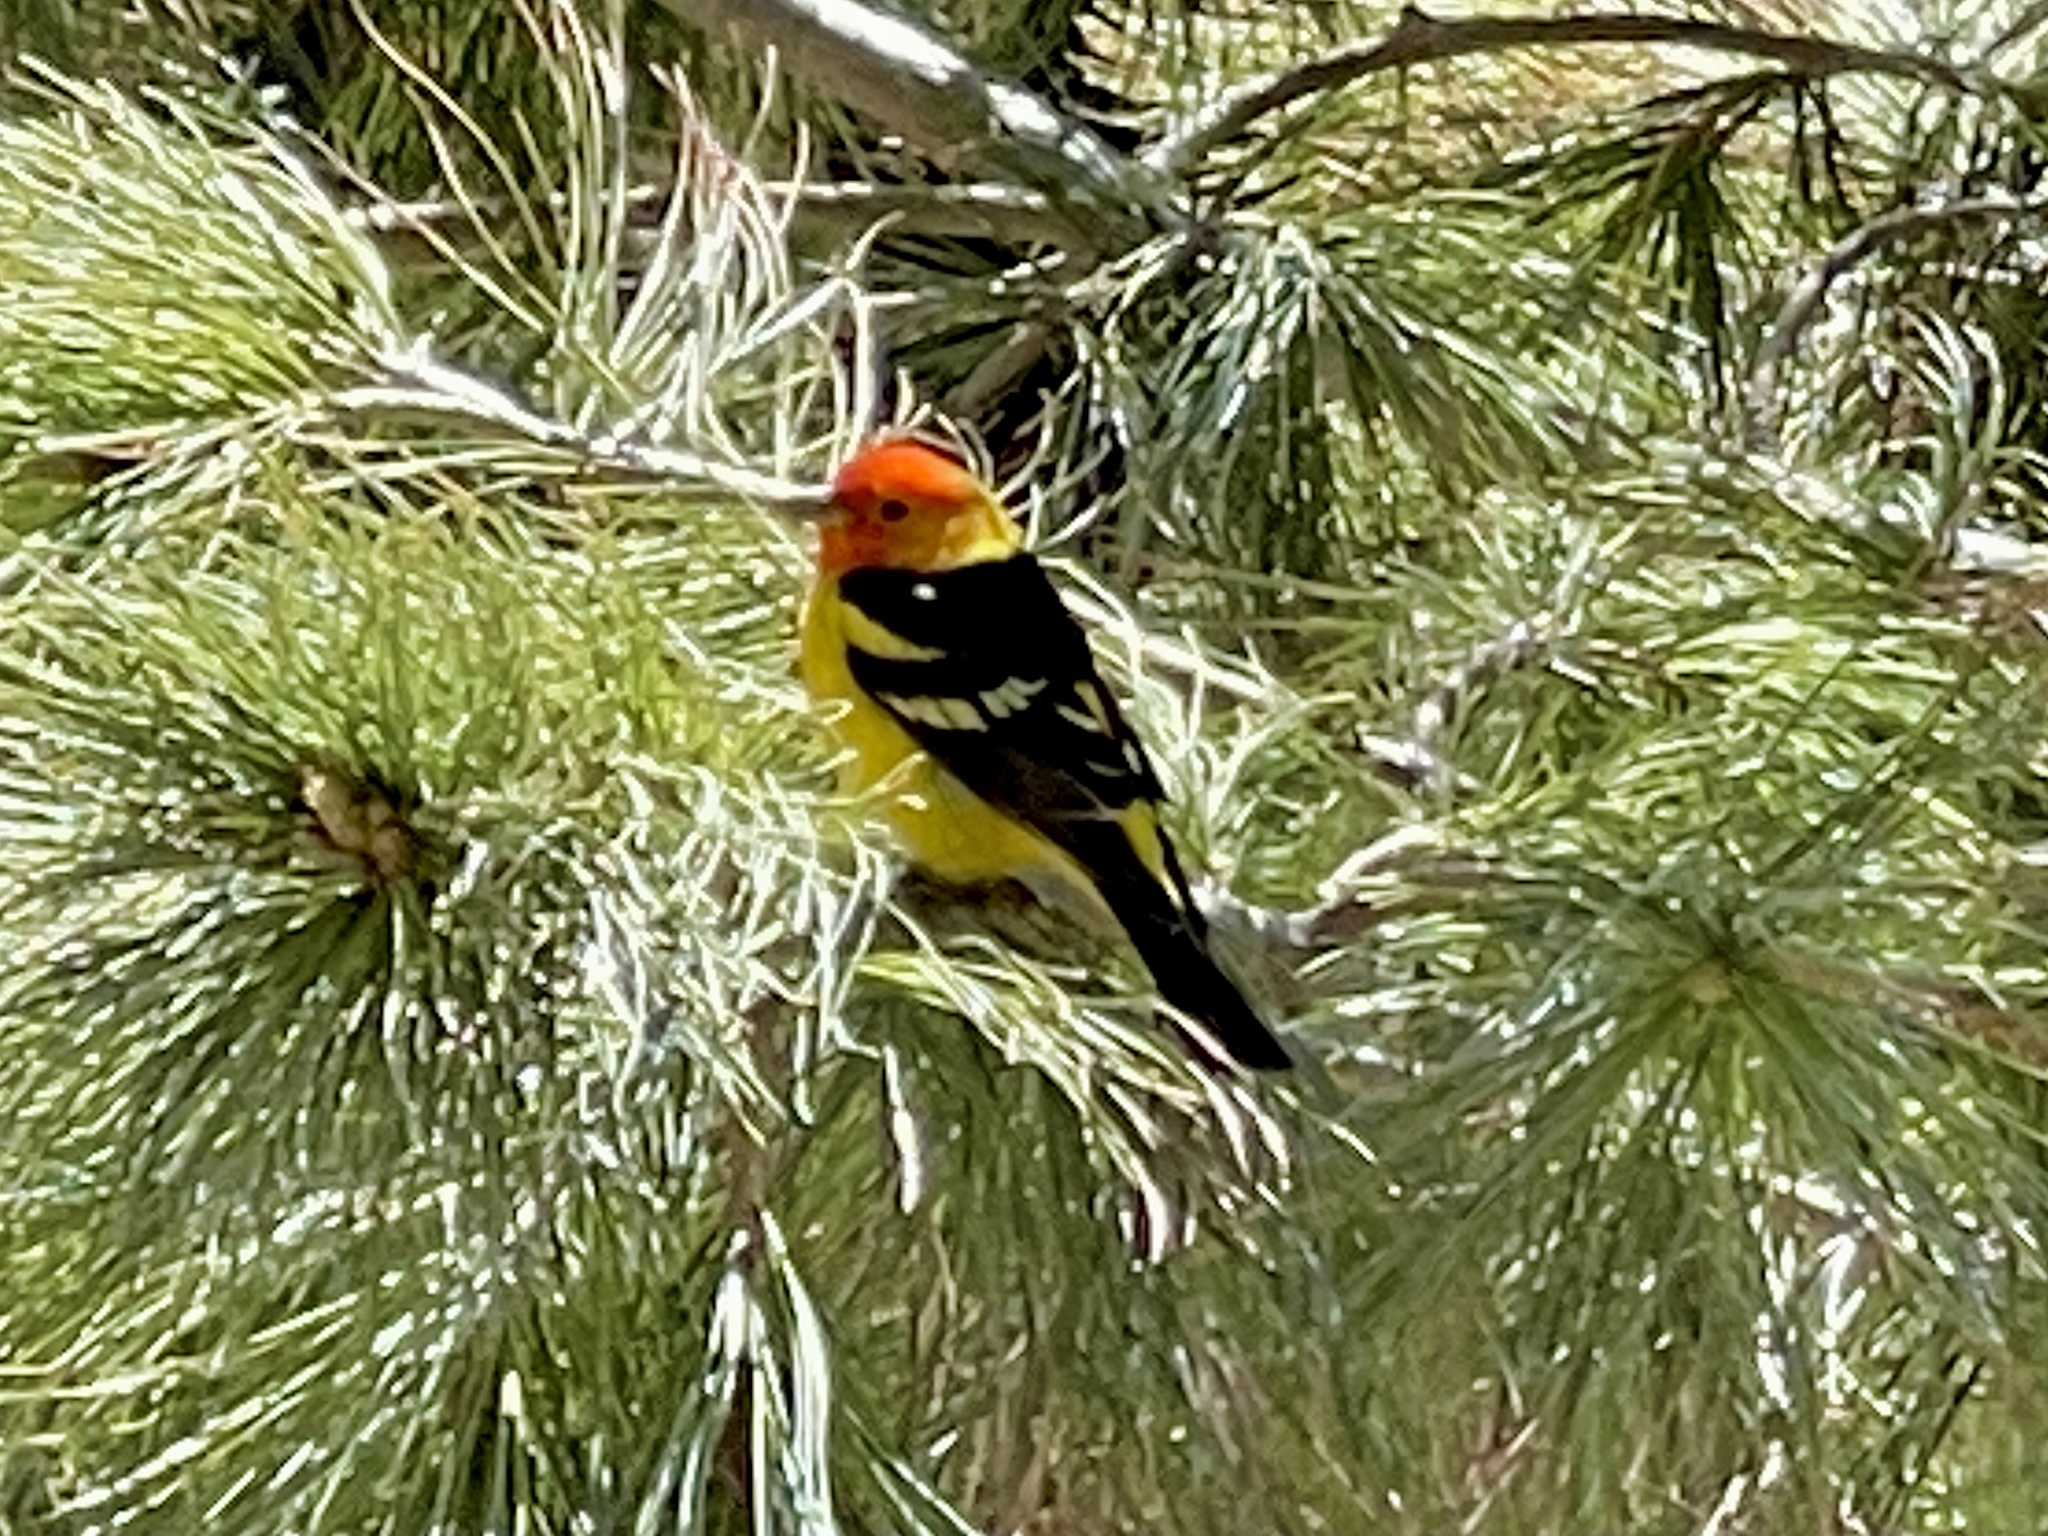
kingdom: Animalia
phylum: Chordata
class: Aves
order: Passeriformes
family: Cardinalidae
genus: Piranga
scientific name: Piranga ludoviciana
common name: Western tanager
